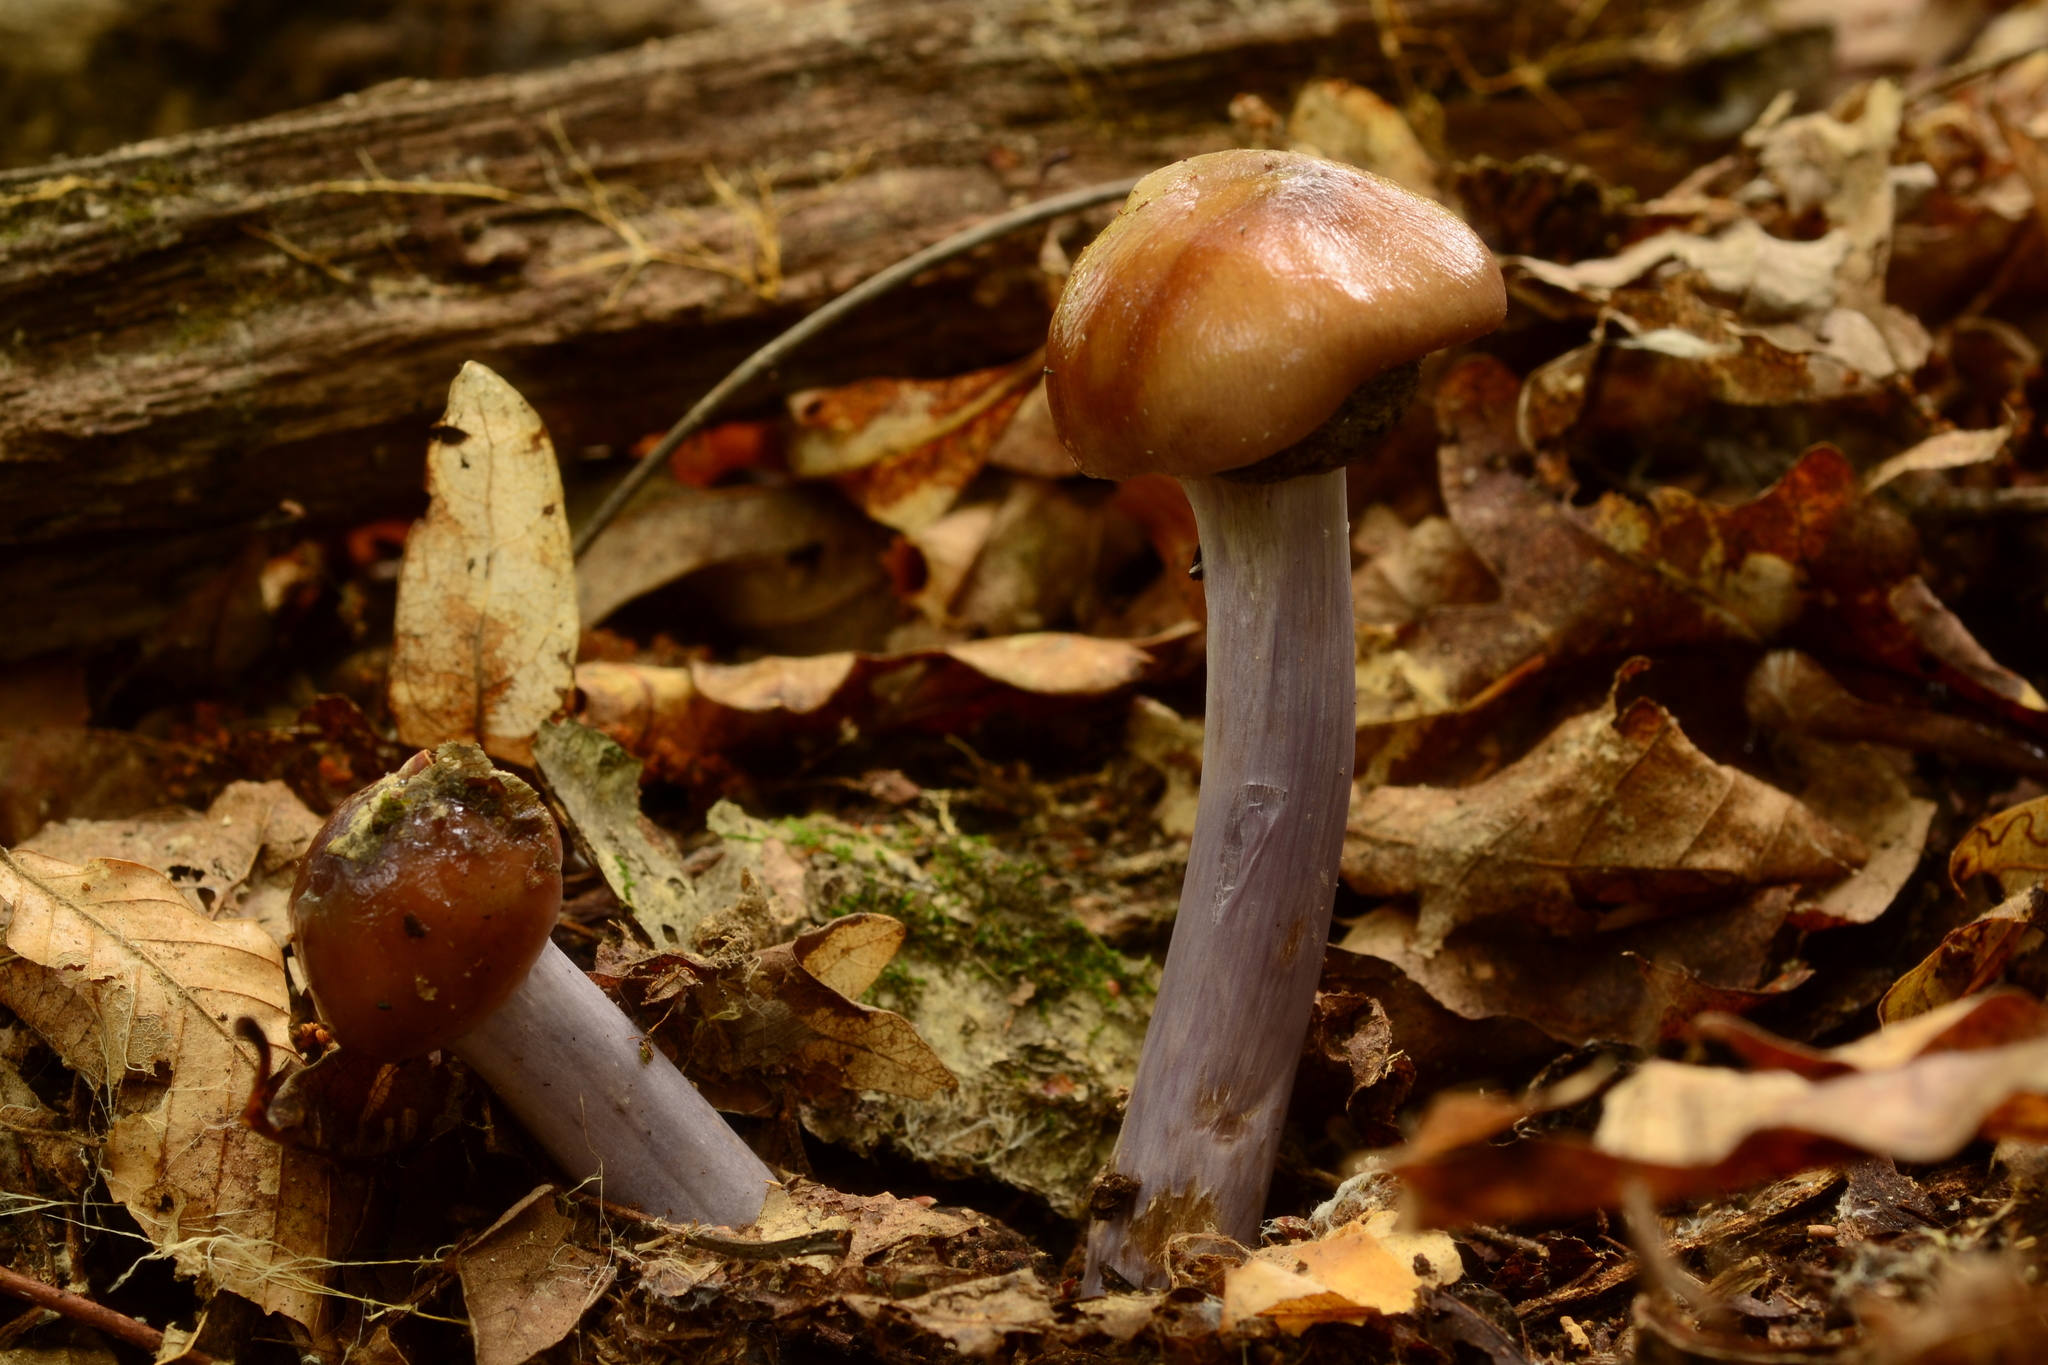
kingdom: Fungi
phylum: Basidiomycota
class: Agaricomycetes
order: Agaricales
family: Cortinariaceae
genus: Cortinarius
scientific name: Cortinarius splendidus
